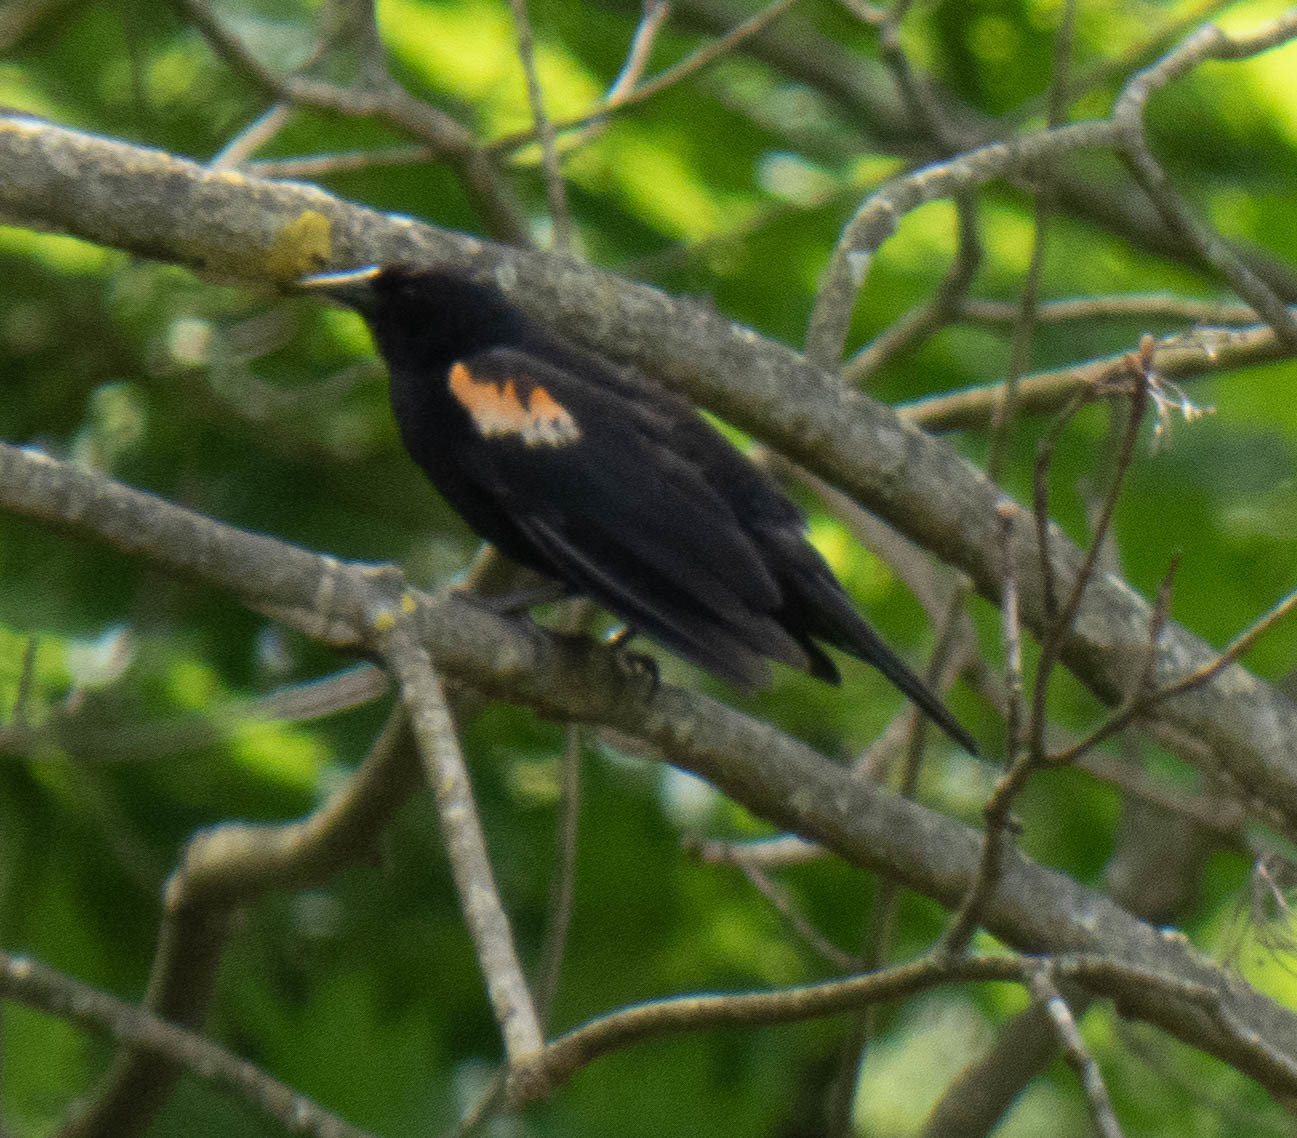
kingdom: Animalia
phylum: Chordata
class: Aves
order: Passeriformes
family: Icteridae
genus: Agelaius
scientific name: Agelaius phoeniceus
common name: Red-winged blackbird
